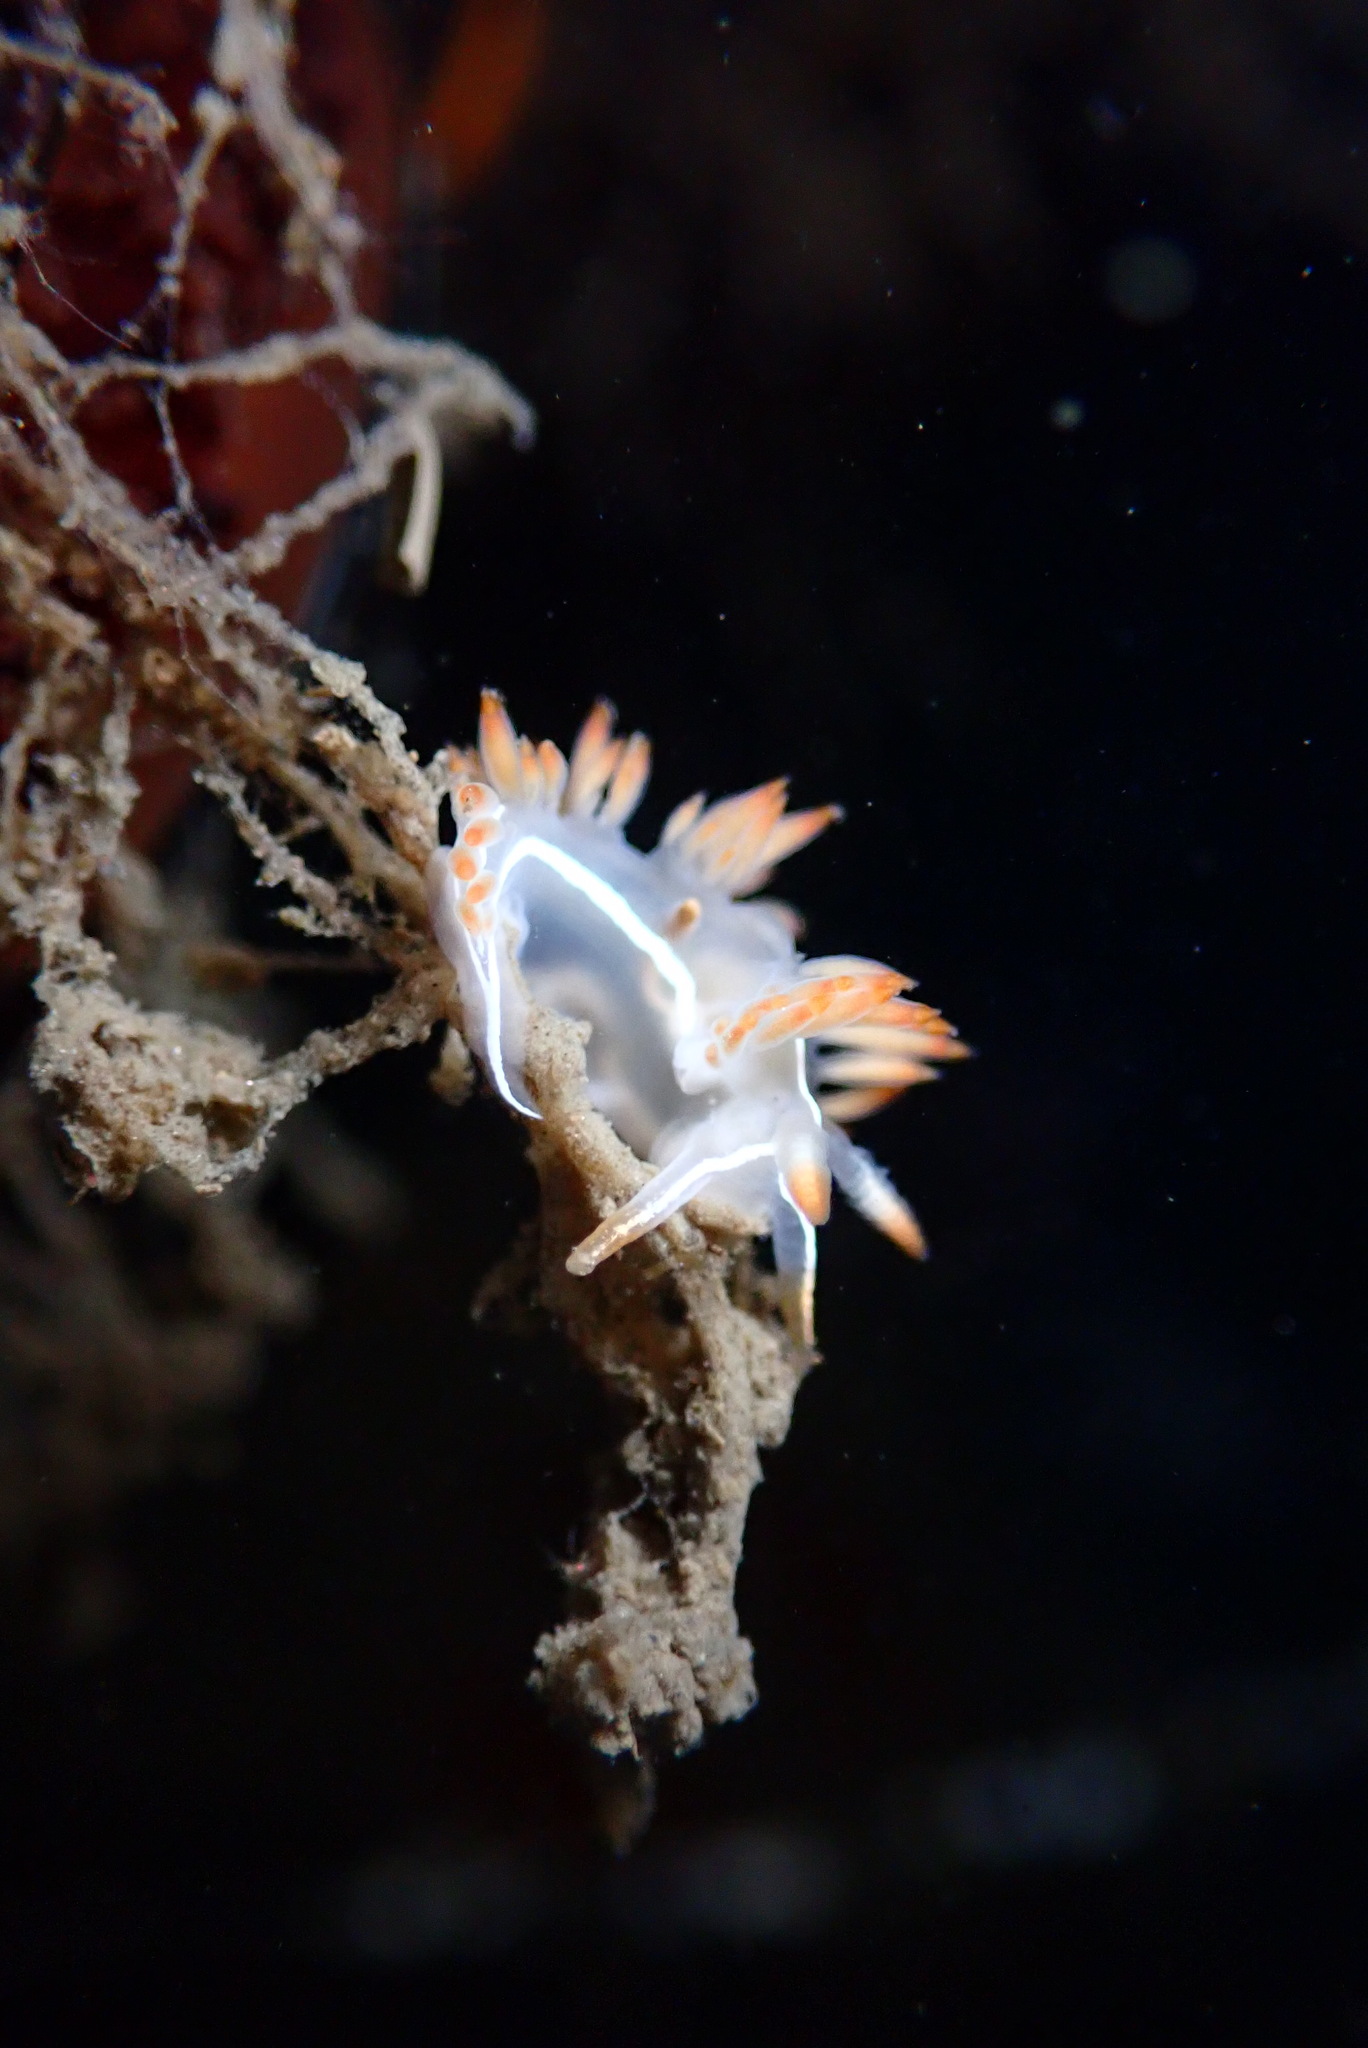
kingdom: Animalia
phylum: Mollusca
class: Gastropoda
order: Nudibranchia
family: Coryphellidae
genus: Coryphella
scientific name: Coryphella trilineata
